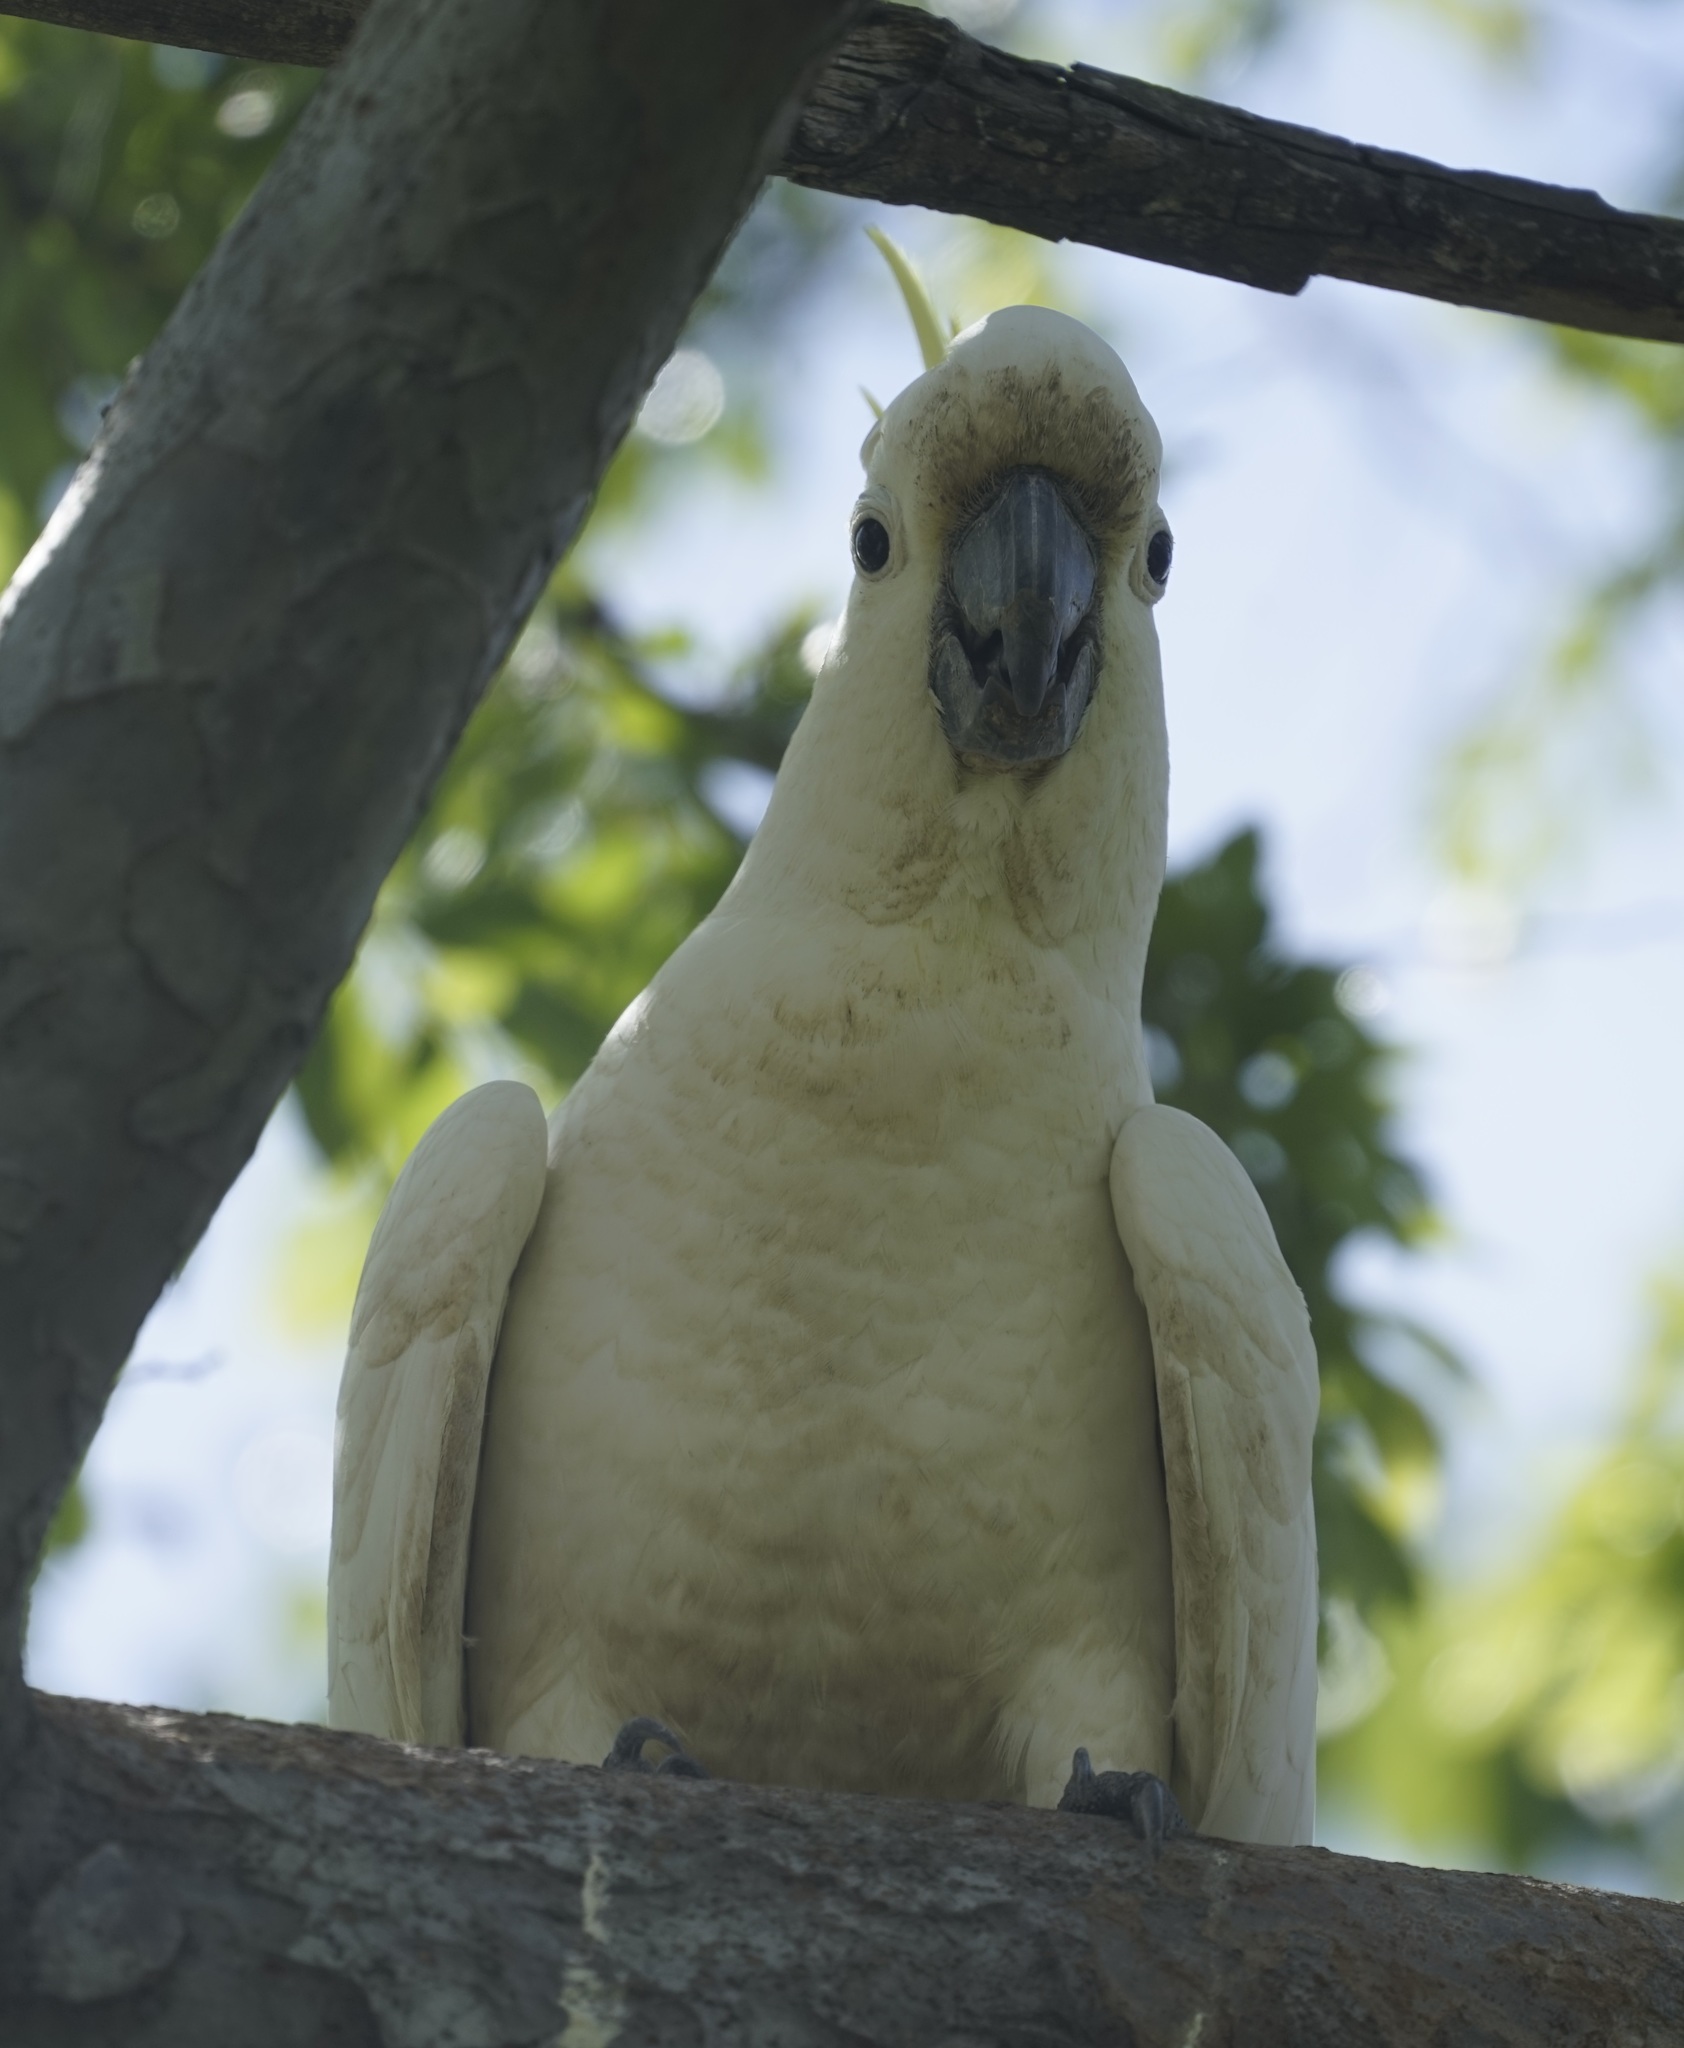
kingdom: Animalia
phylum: Chordata
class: Aves
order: Psittaciformes
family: Psittacidae
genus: Cacatua
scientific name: Cacatua galerita
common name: Sulphur-crested cockatoo
